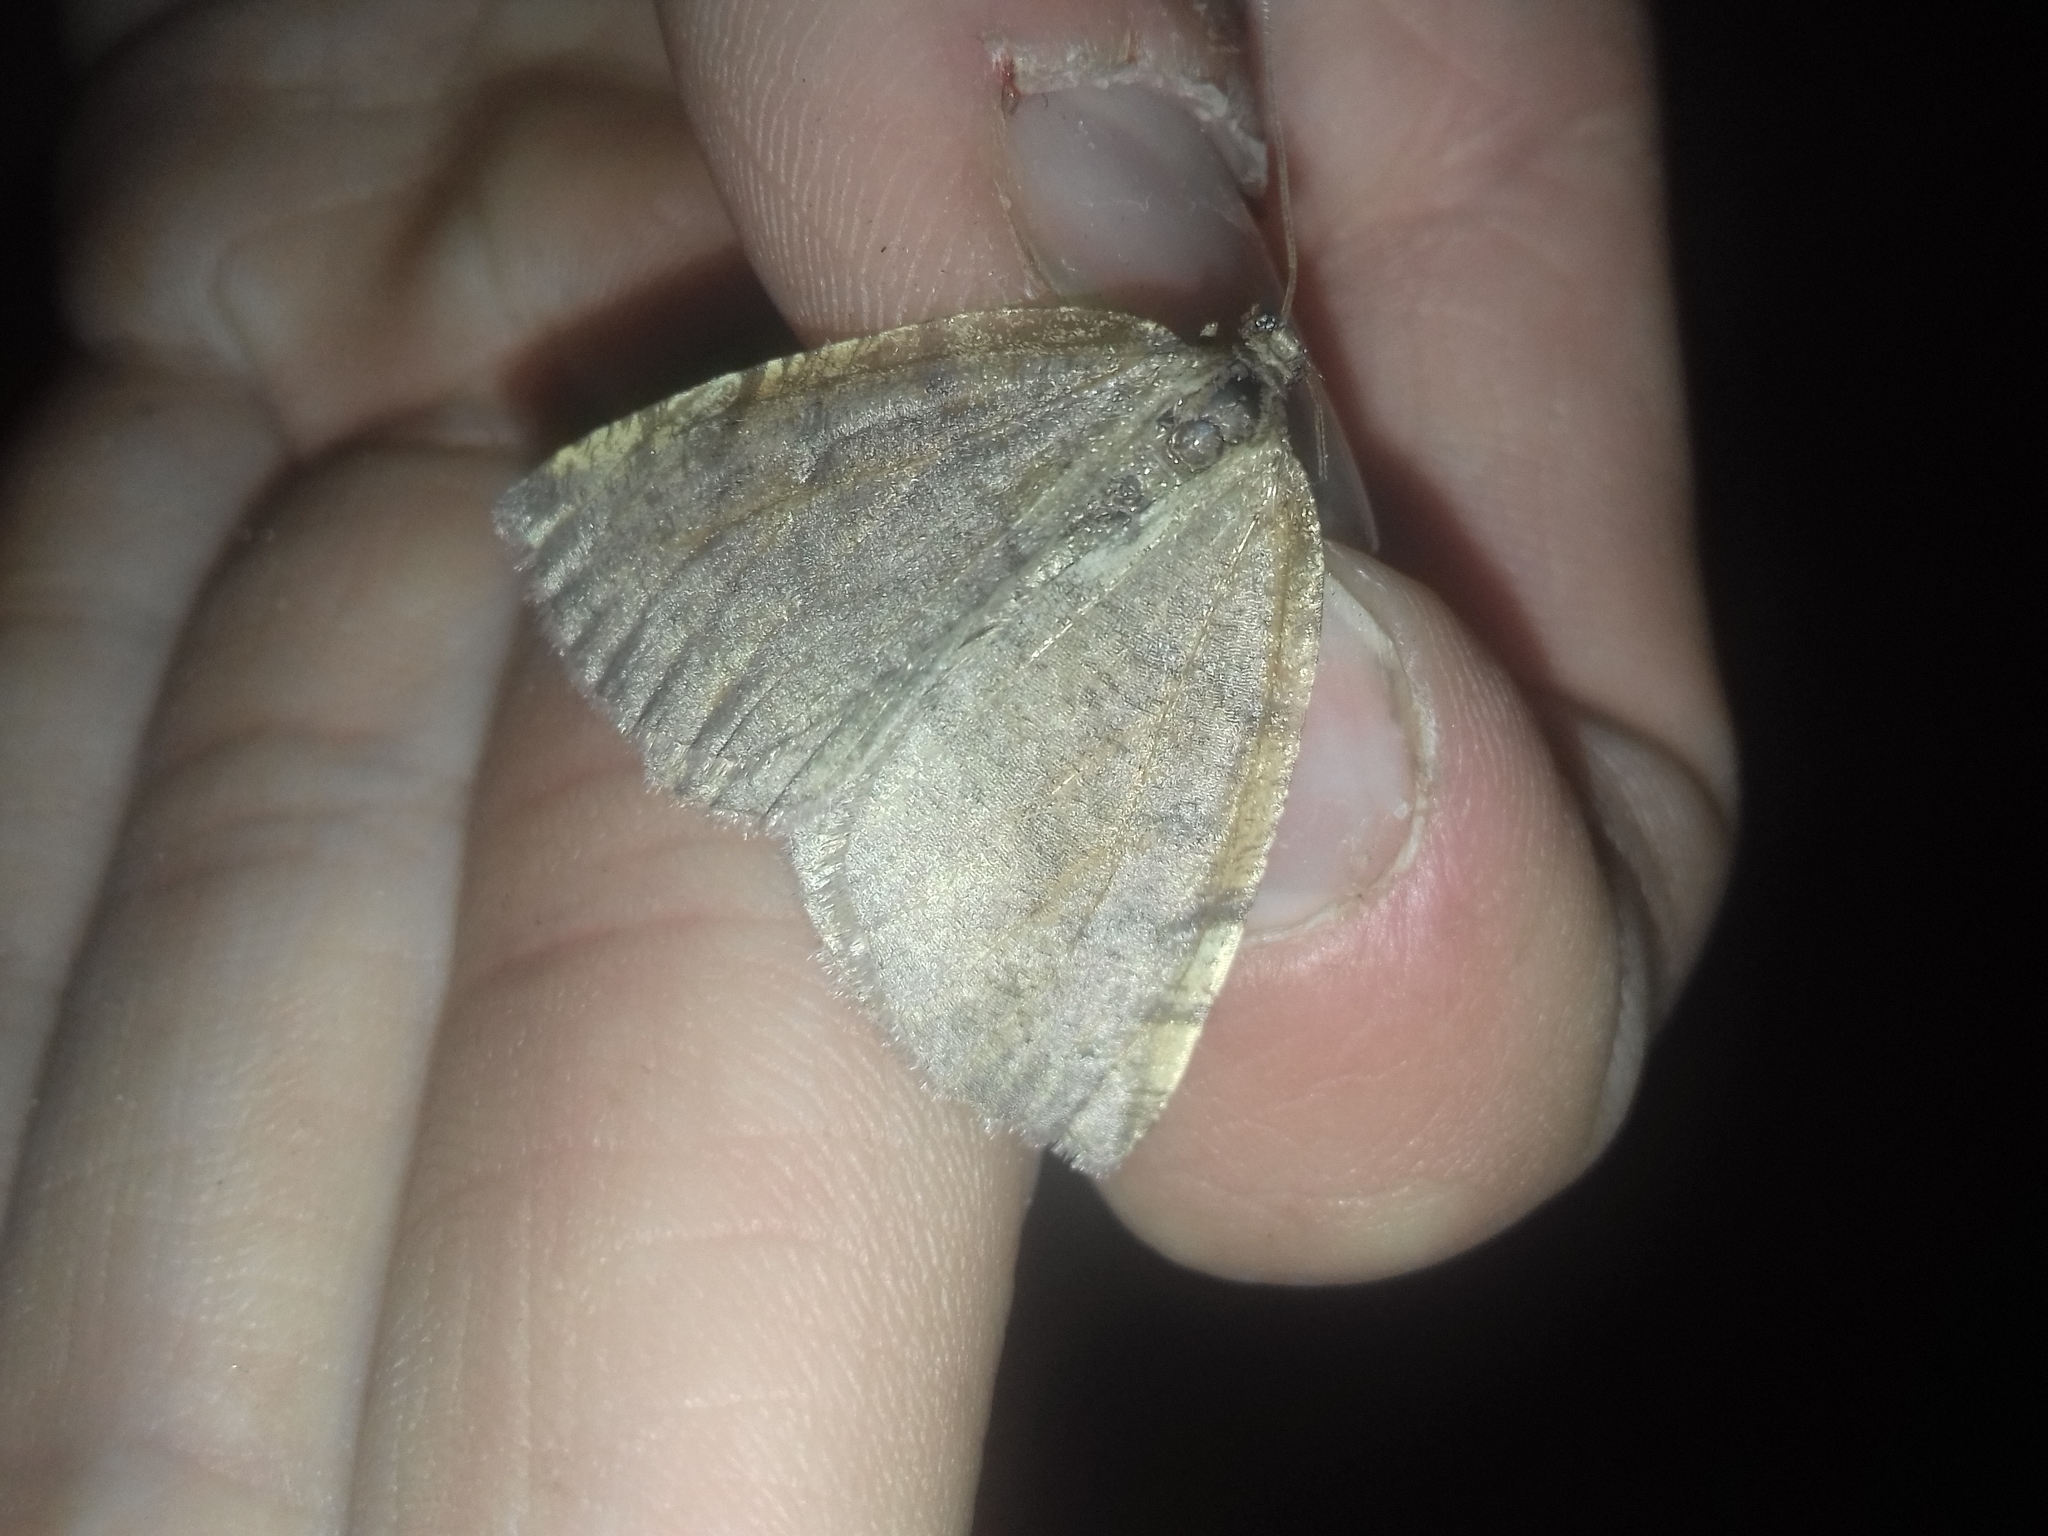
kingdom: Animalia
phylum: Arthropoda
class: Insecta
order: Lepidoptera
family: Geometridae
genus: Epirranthis
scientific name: Epirranthis diversata
